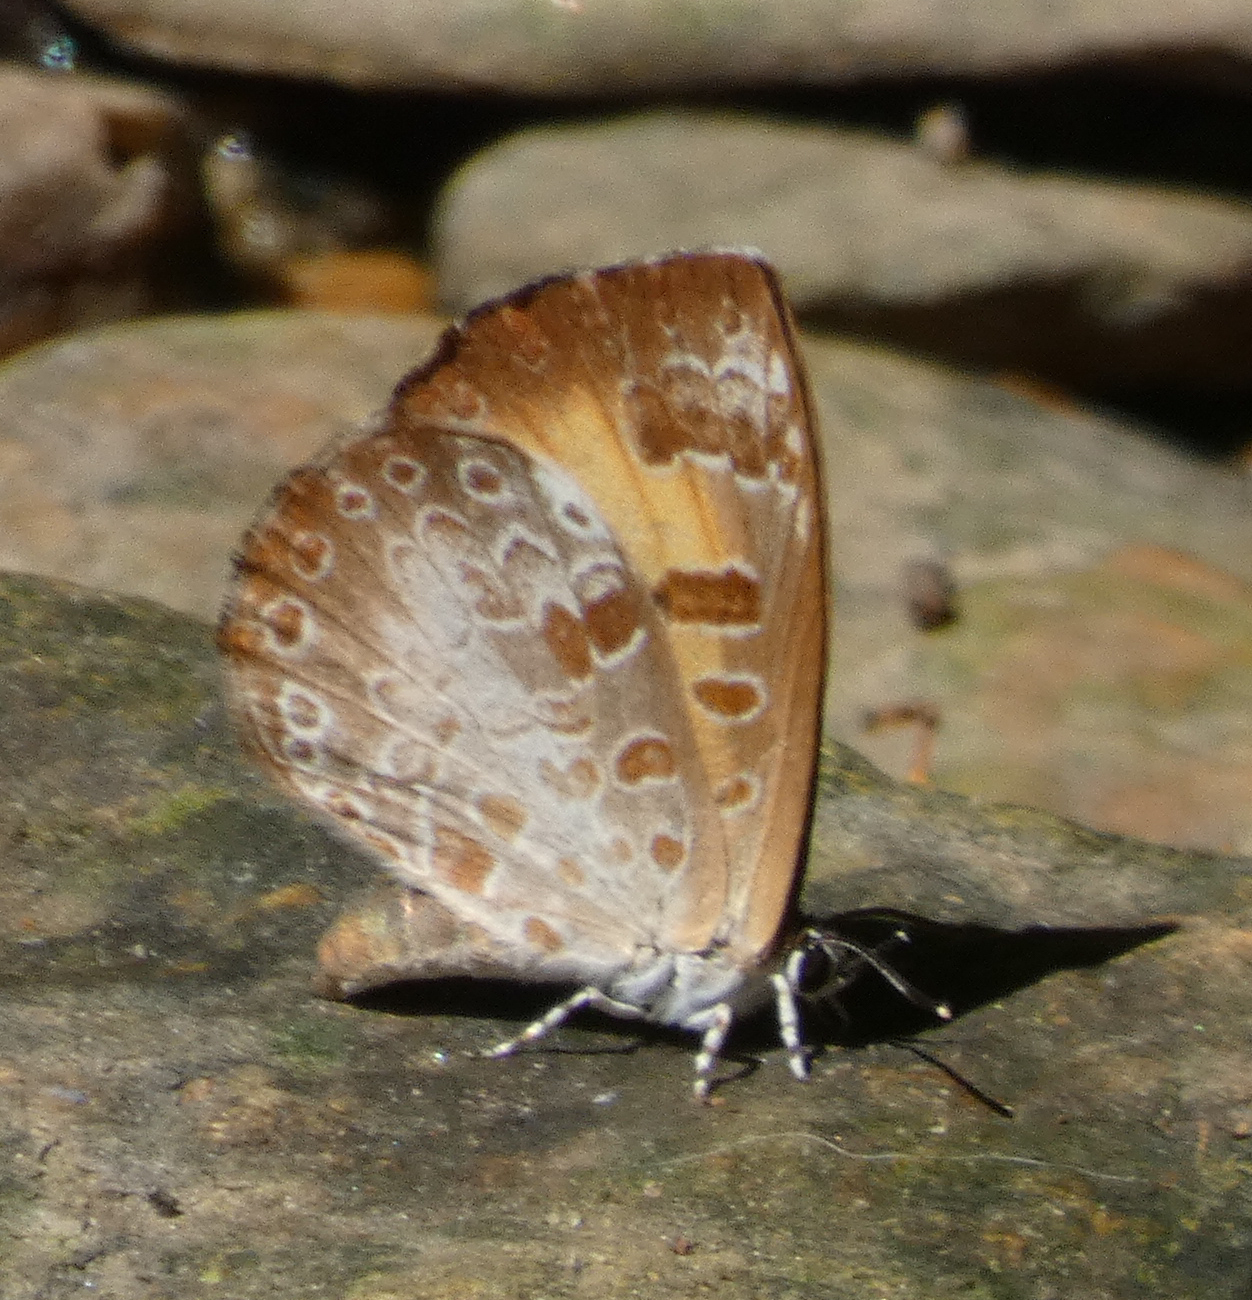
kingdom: Animalia
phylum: Arthropoda
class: Insecta
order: Lepidoptera
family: Lycaenidae
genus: Feniseca
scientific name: Feniseca tarquinius
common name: Harvester
